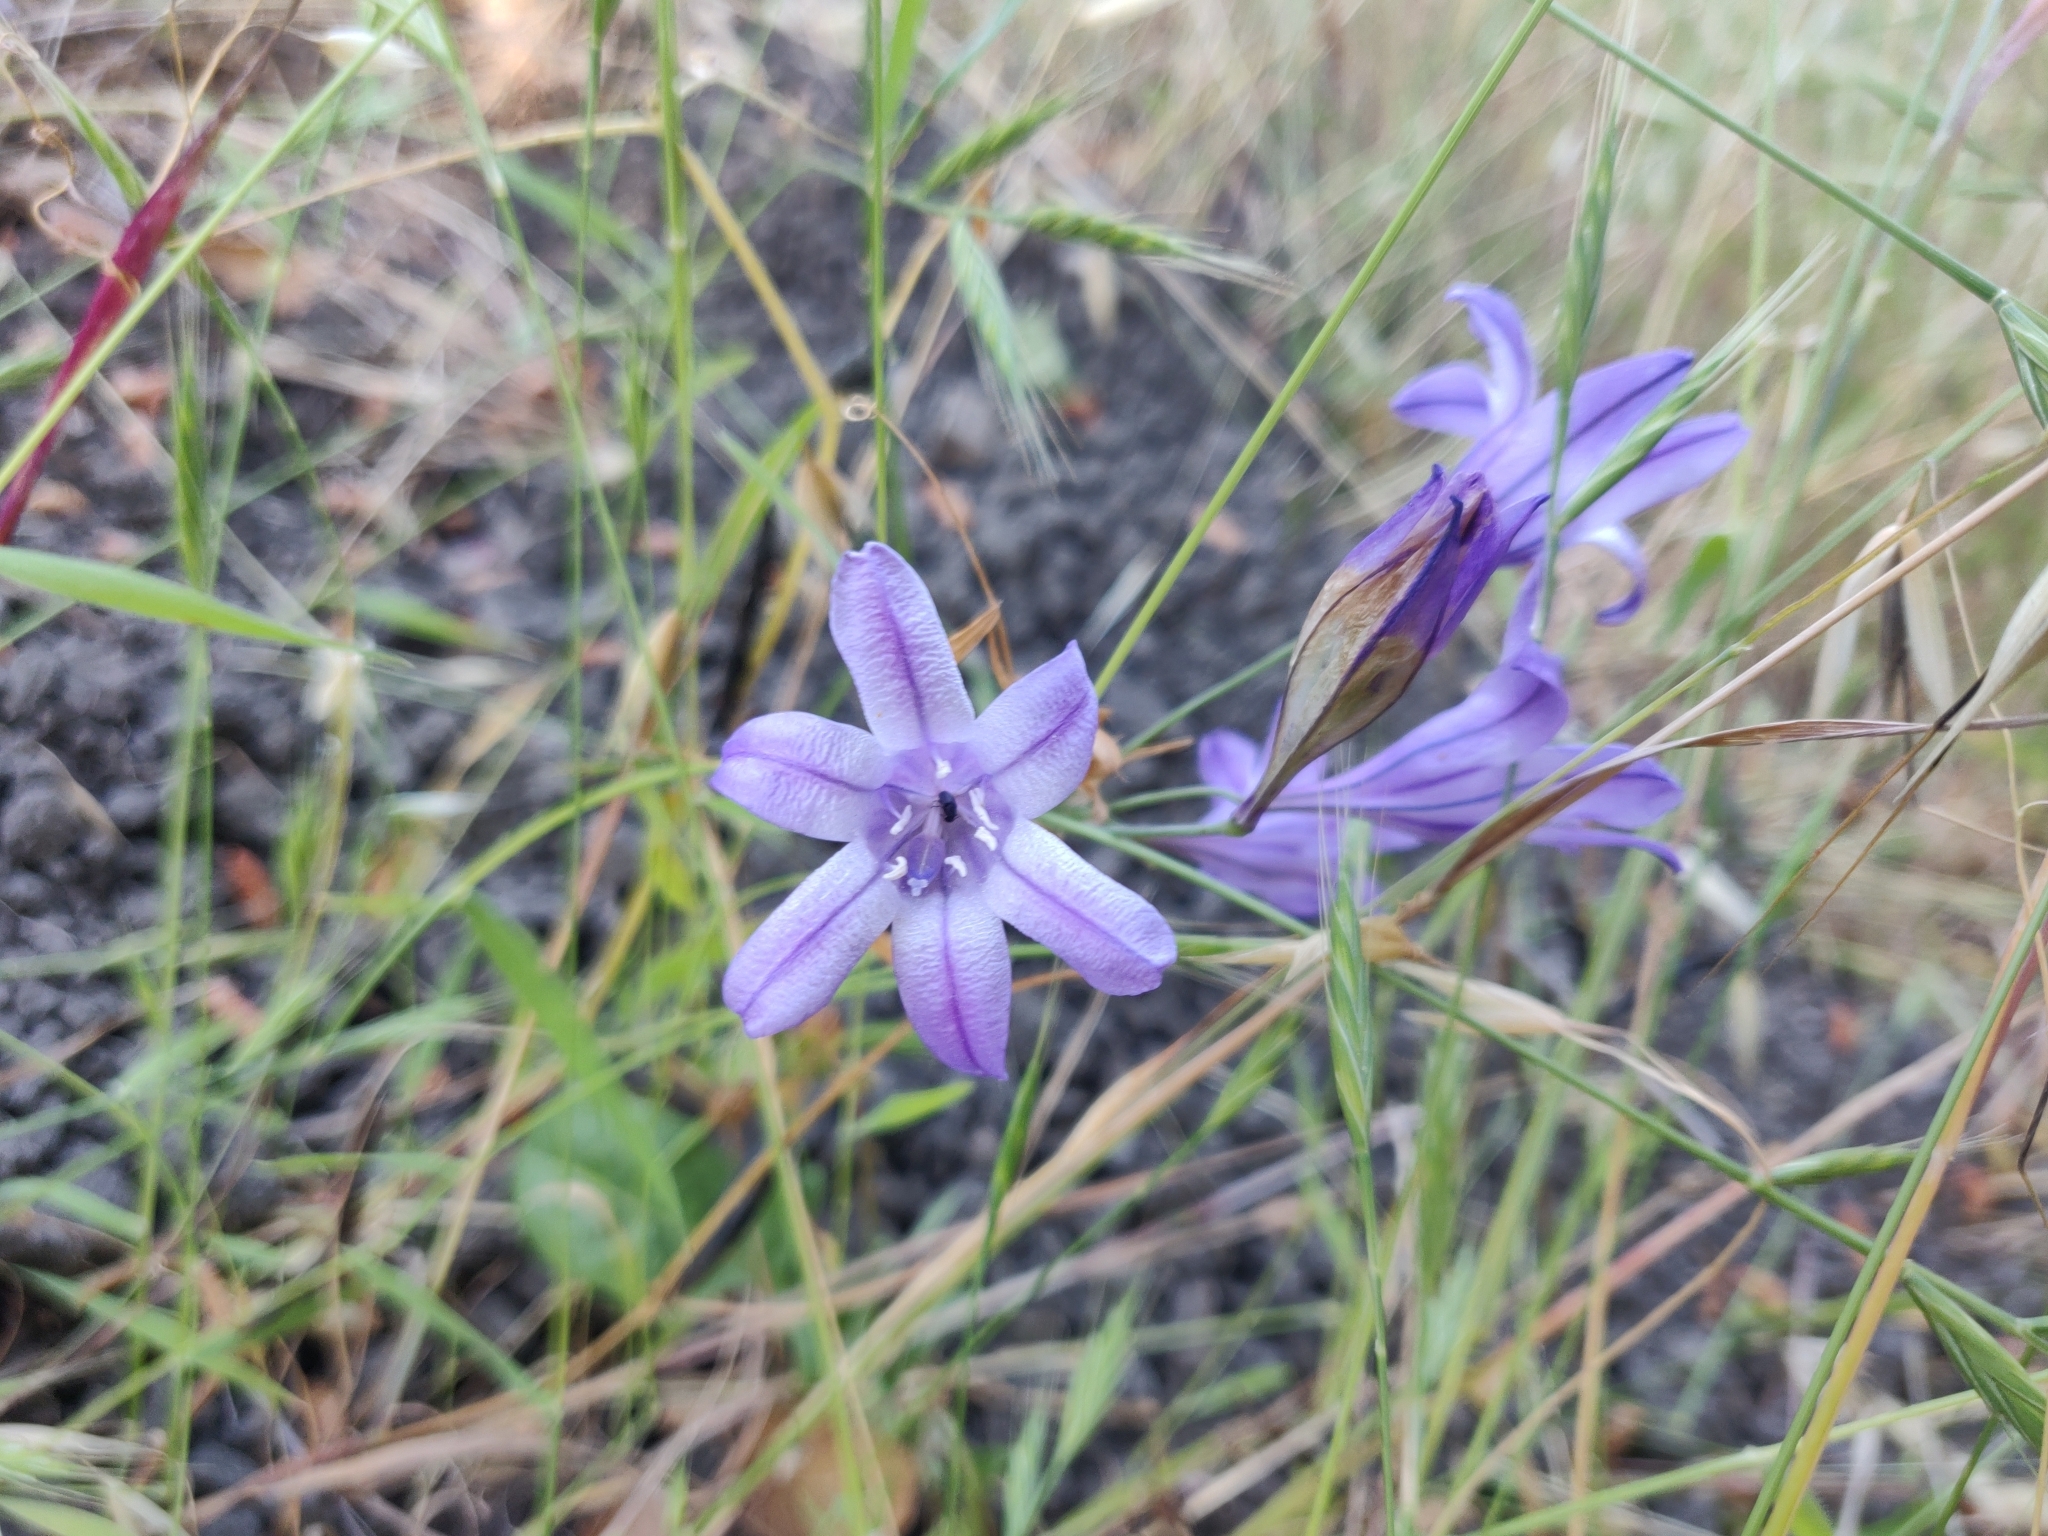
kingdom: Plantae
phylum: Tracheophyta
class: Liliopsida
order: Asparagales
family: Asparagaceae
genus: Triteleia
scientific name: Triteleia laxa
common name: Triplet-lily
